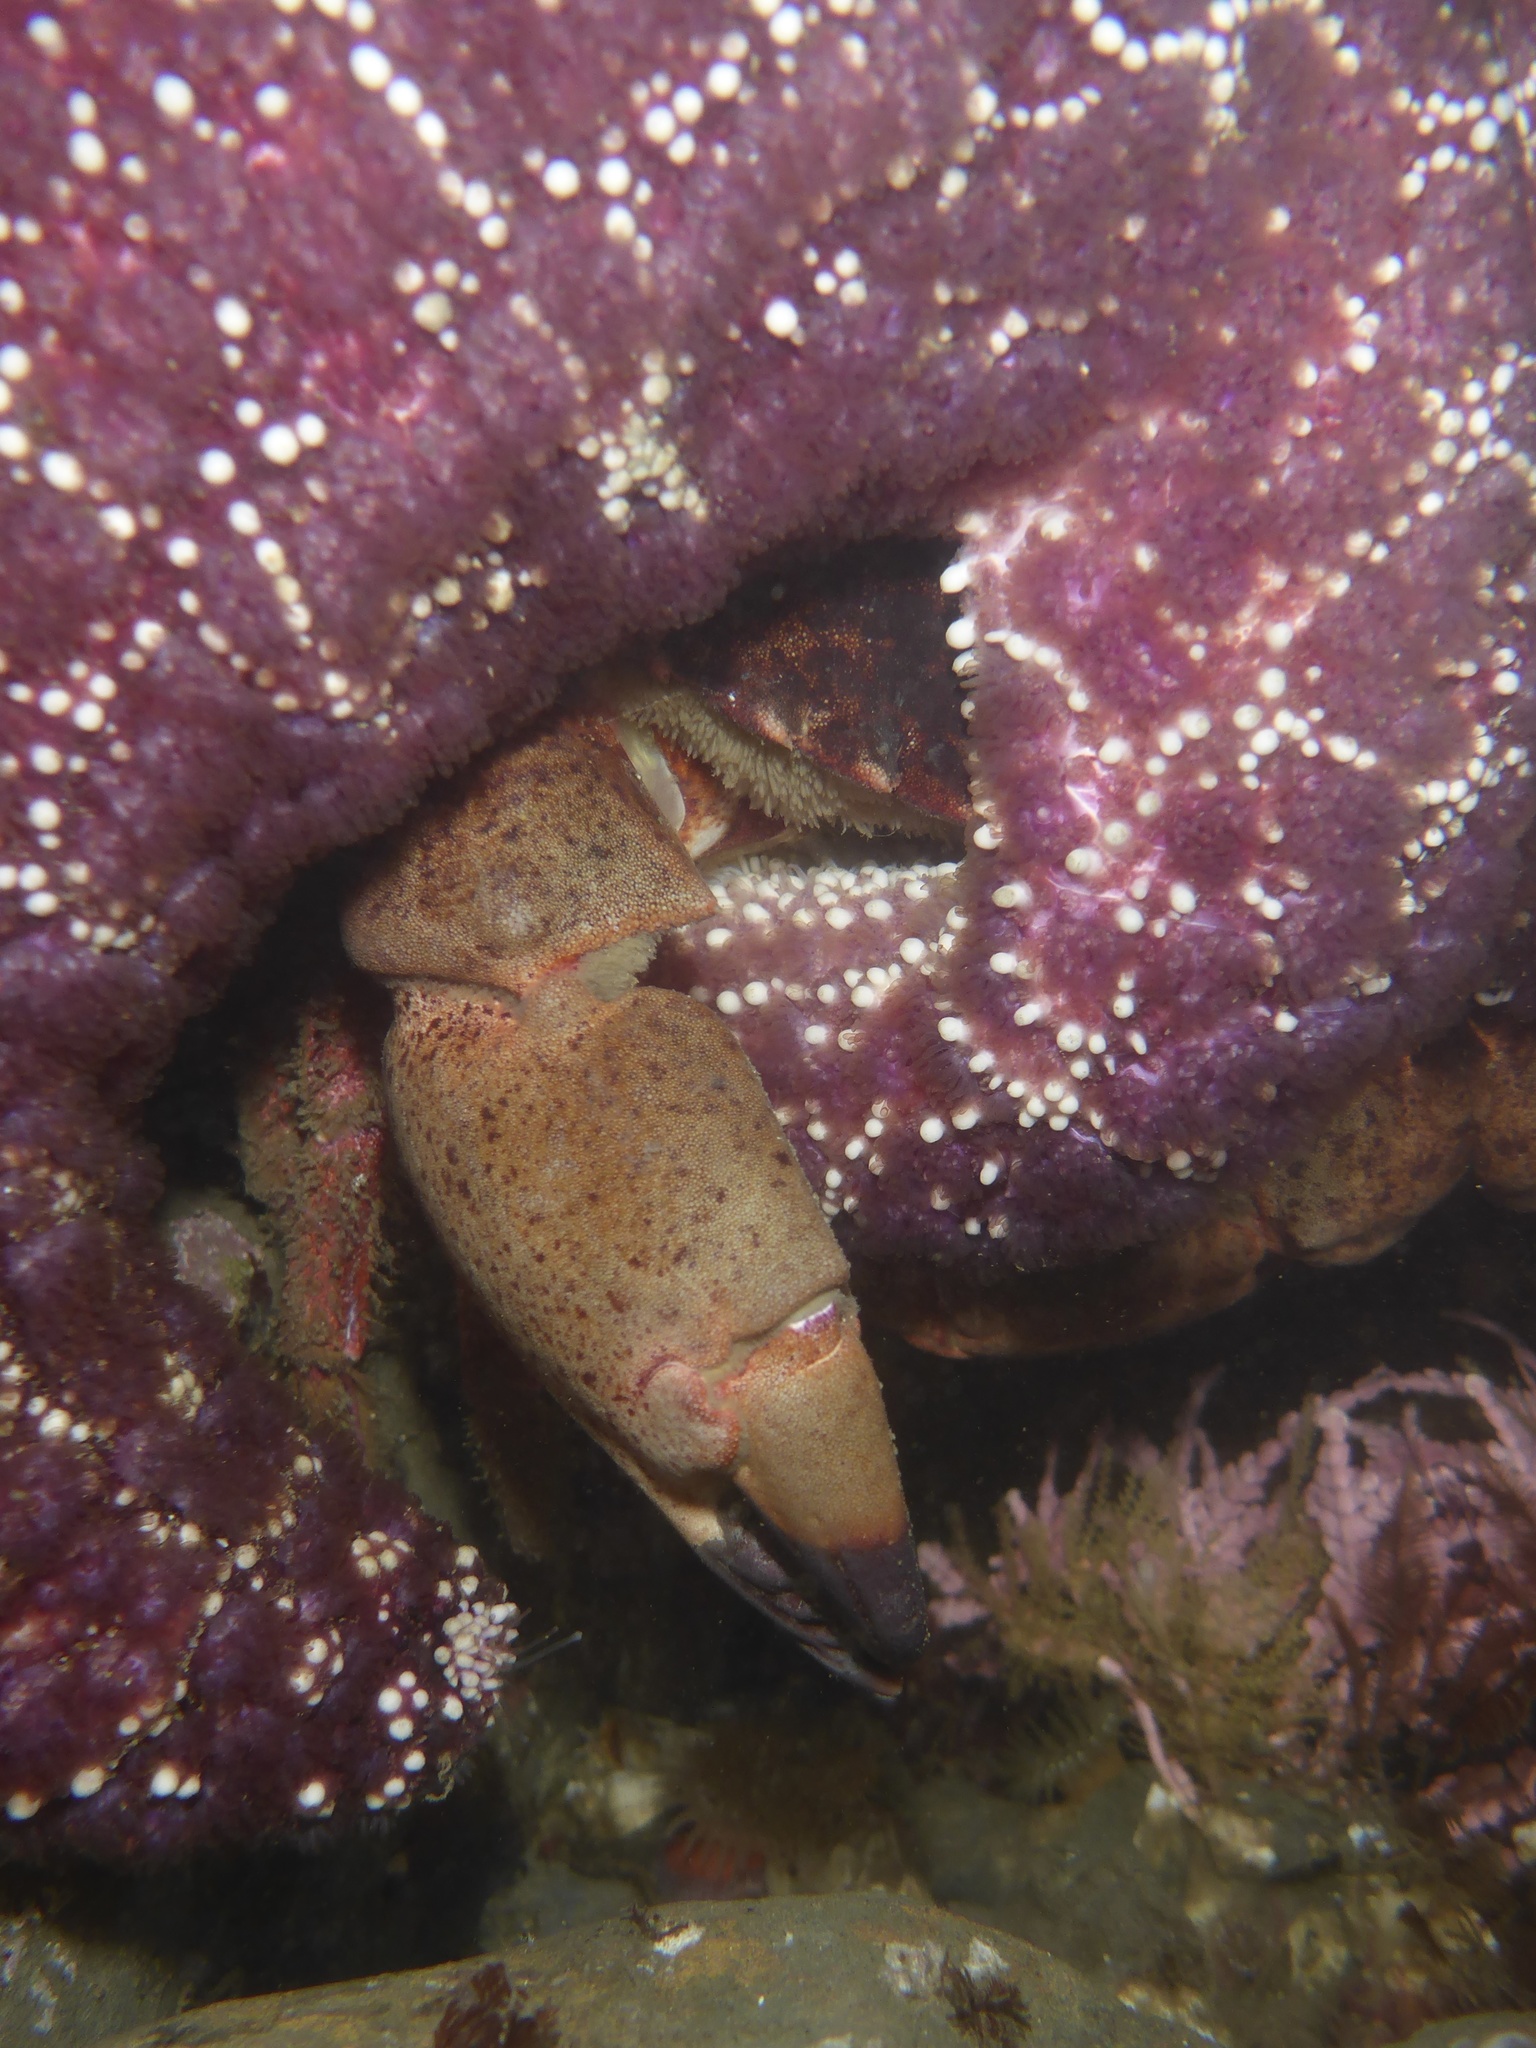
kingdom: Animalia
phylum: Arthropoda
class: Malacostraca
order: Decapoda
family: Cancridae
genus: Romaleon
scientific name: Romaleon antennarium
